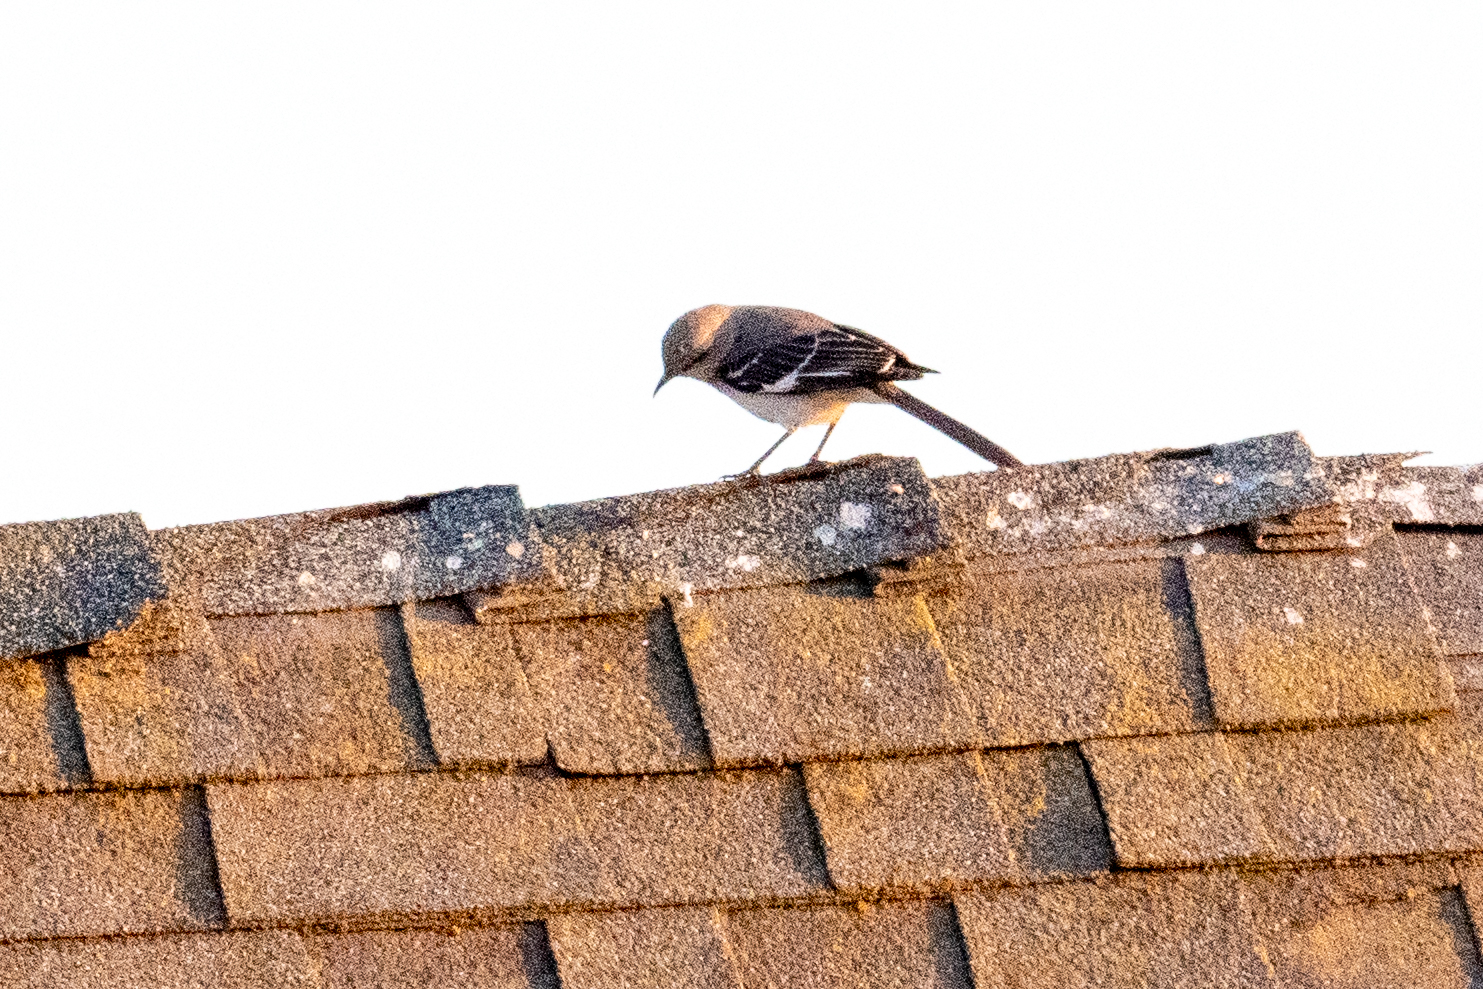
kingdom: Animalia
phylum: Chordata
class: Aves
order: Passeriformes
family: Mimidae
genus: Mimus
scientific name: Mimus polyglottos
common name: Northern mockingbird
